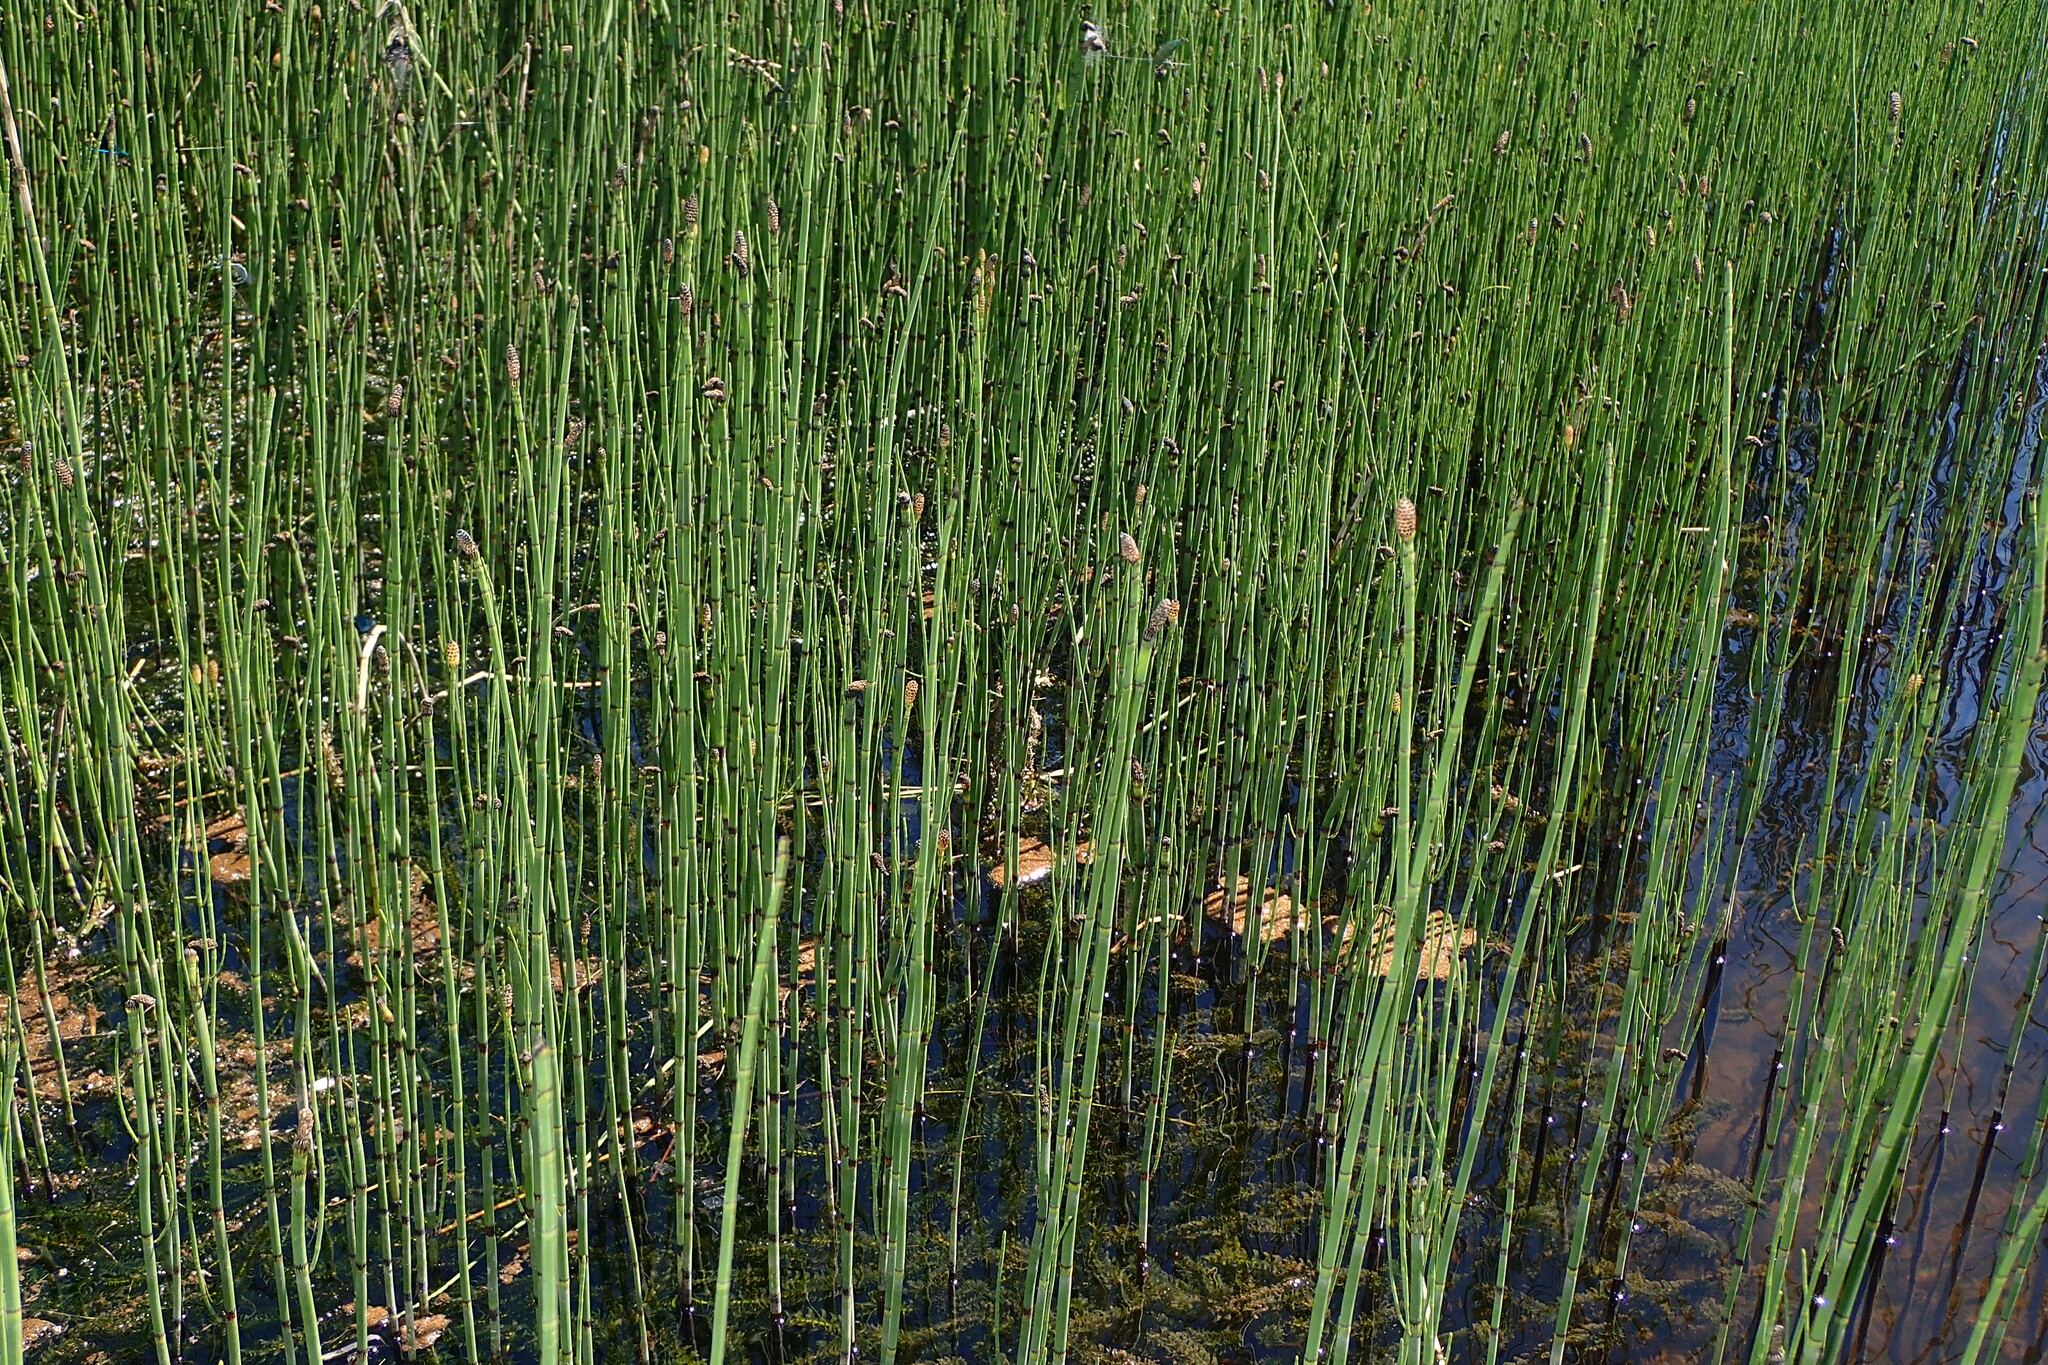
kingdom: Plantae
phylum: Tracheophyta
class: Polypodiopsida
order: Equisetales
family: Equisetaceae
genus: Equisetum
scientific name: Equisetum fluviatile
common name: Water horsetail
